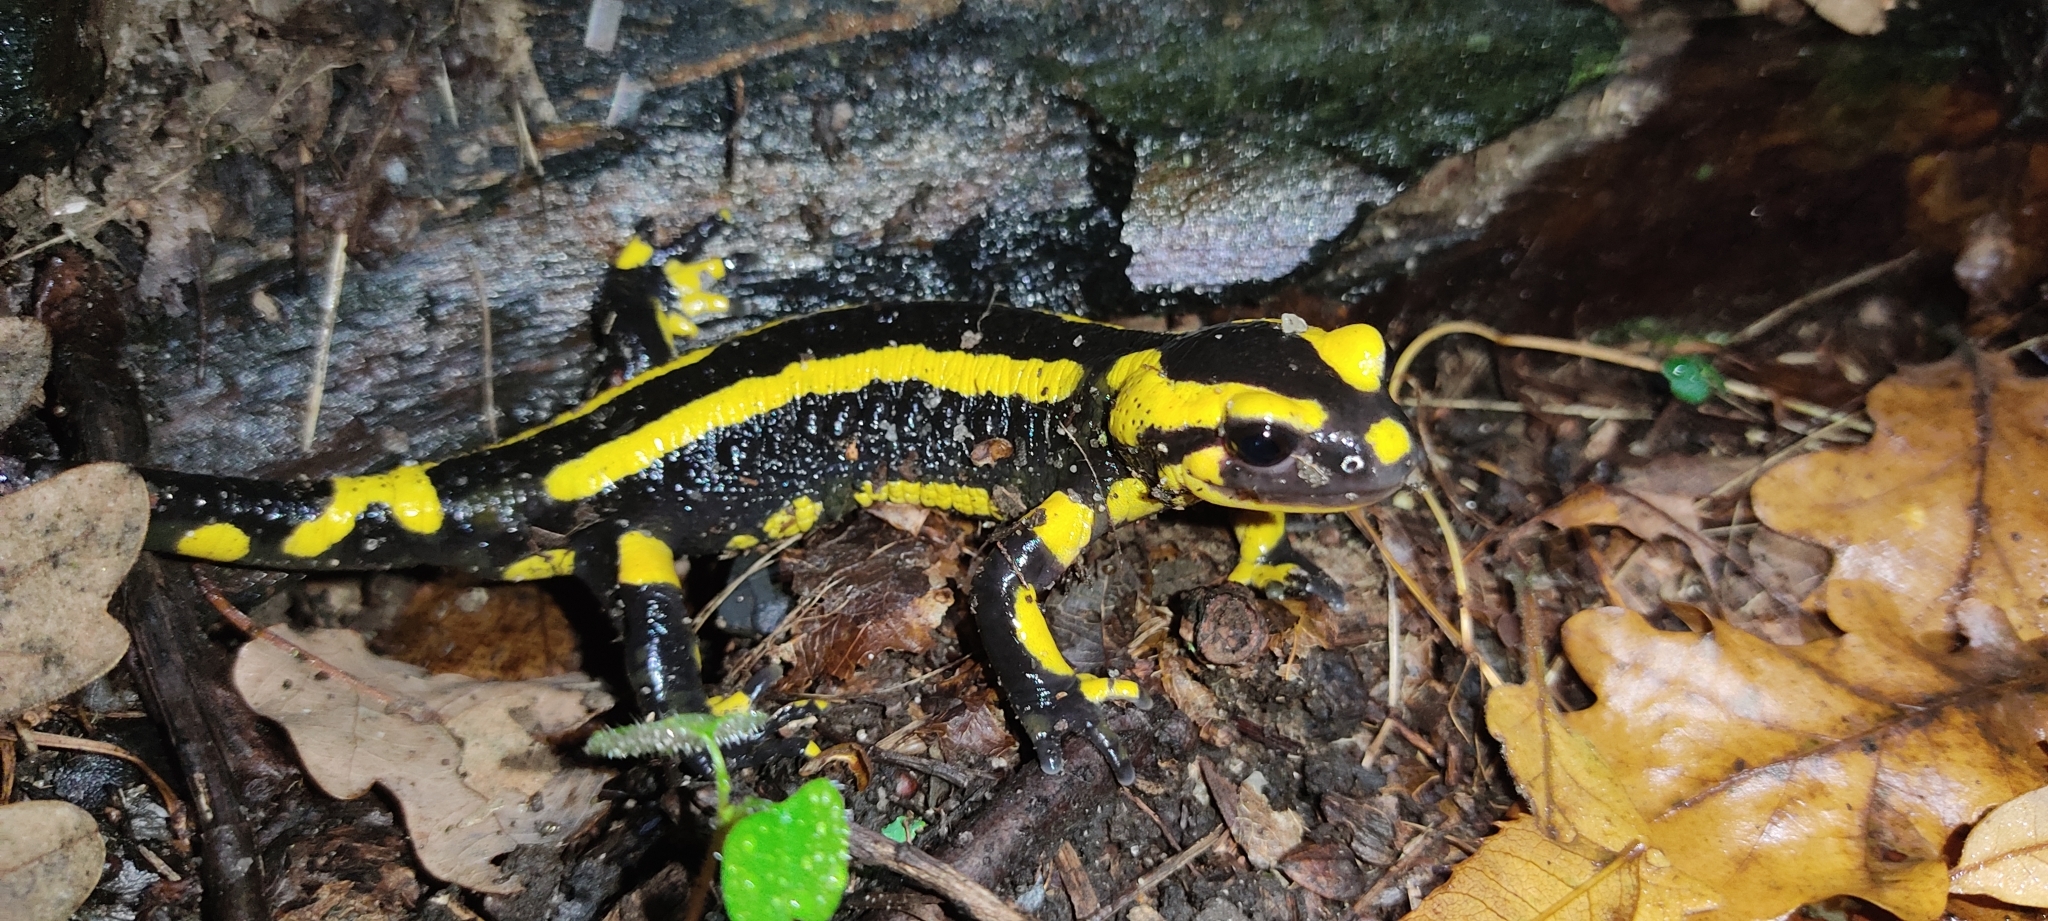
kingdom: Animalia
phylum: Chordata
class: Amphibia
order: Caudata
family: Salamandridae
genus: Salamandra
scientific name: Salamandra salamandra
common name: Fire salamander
